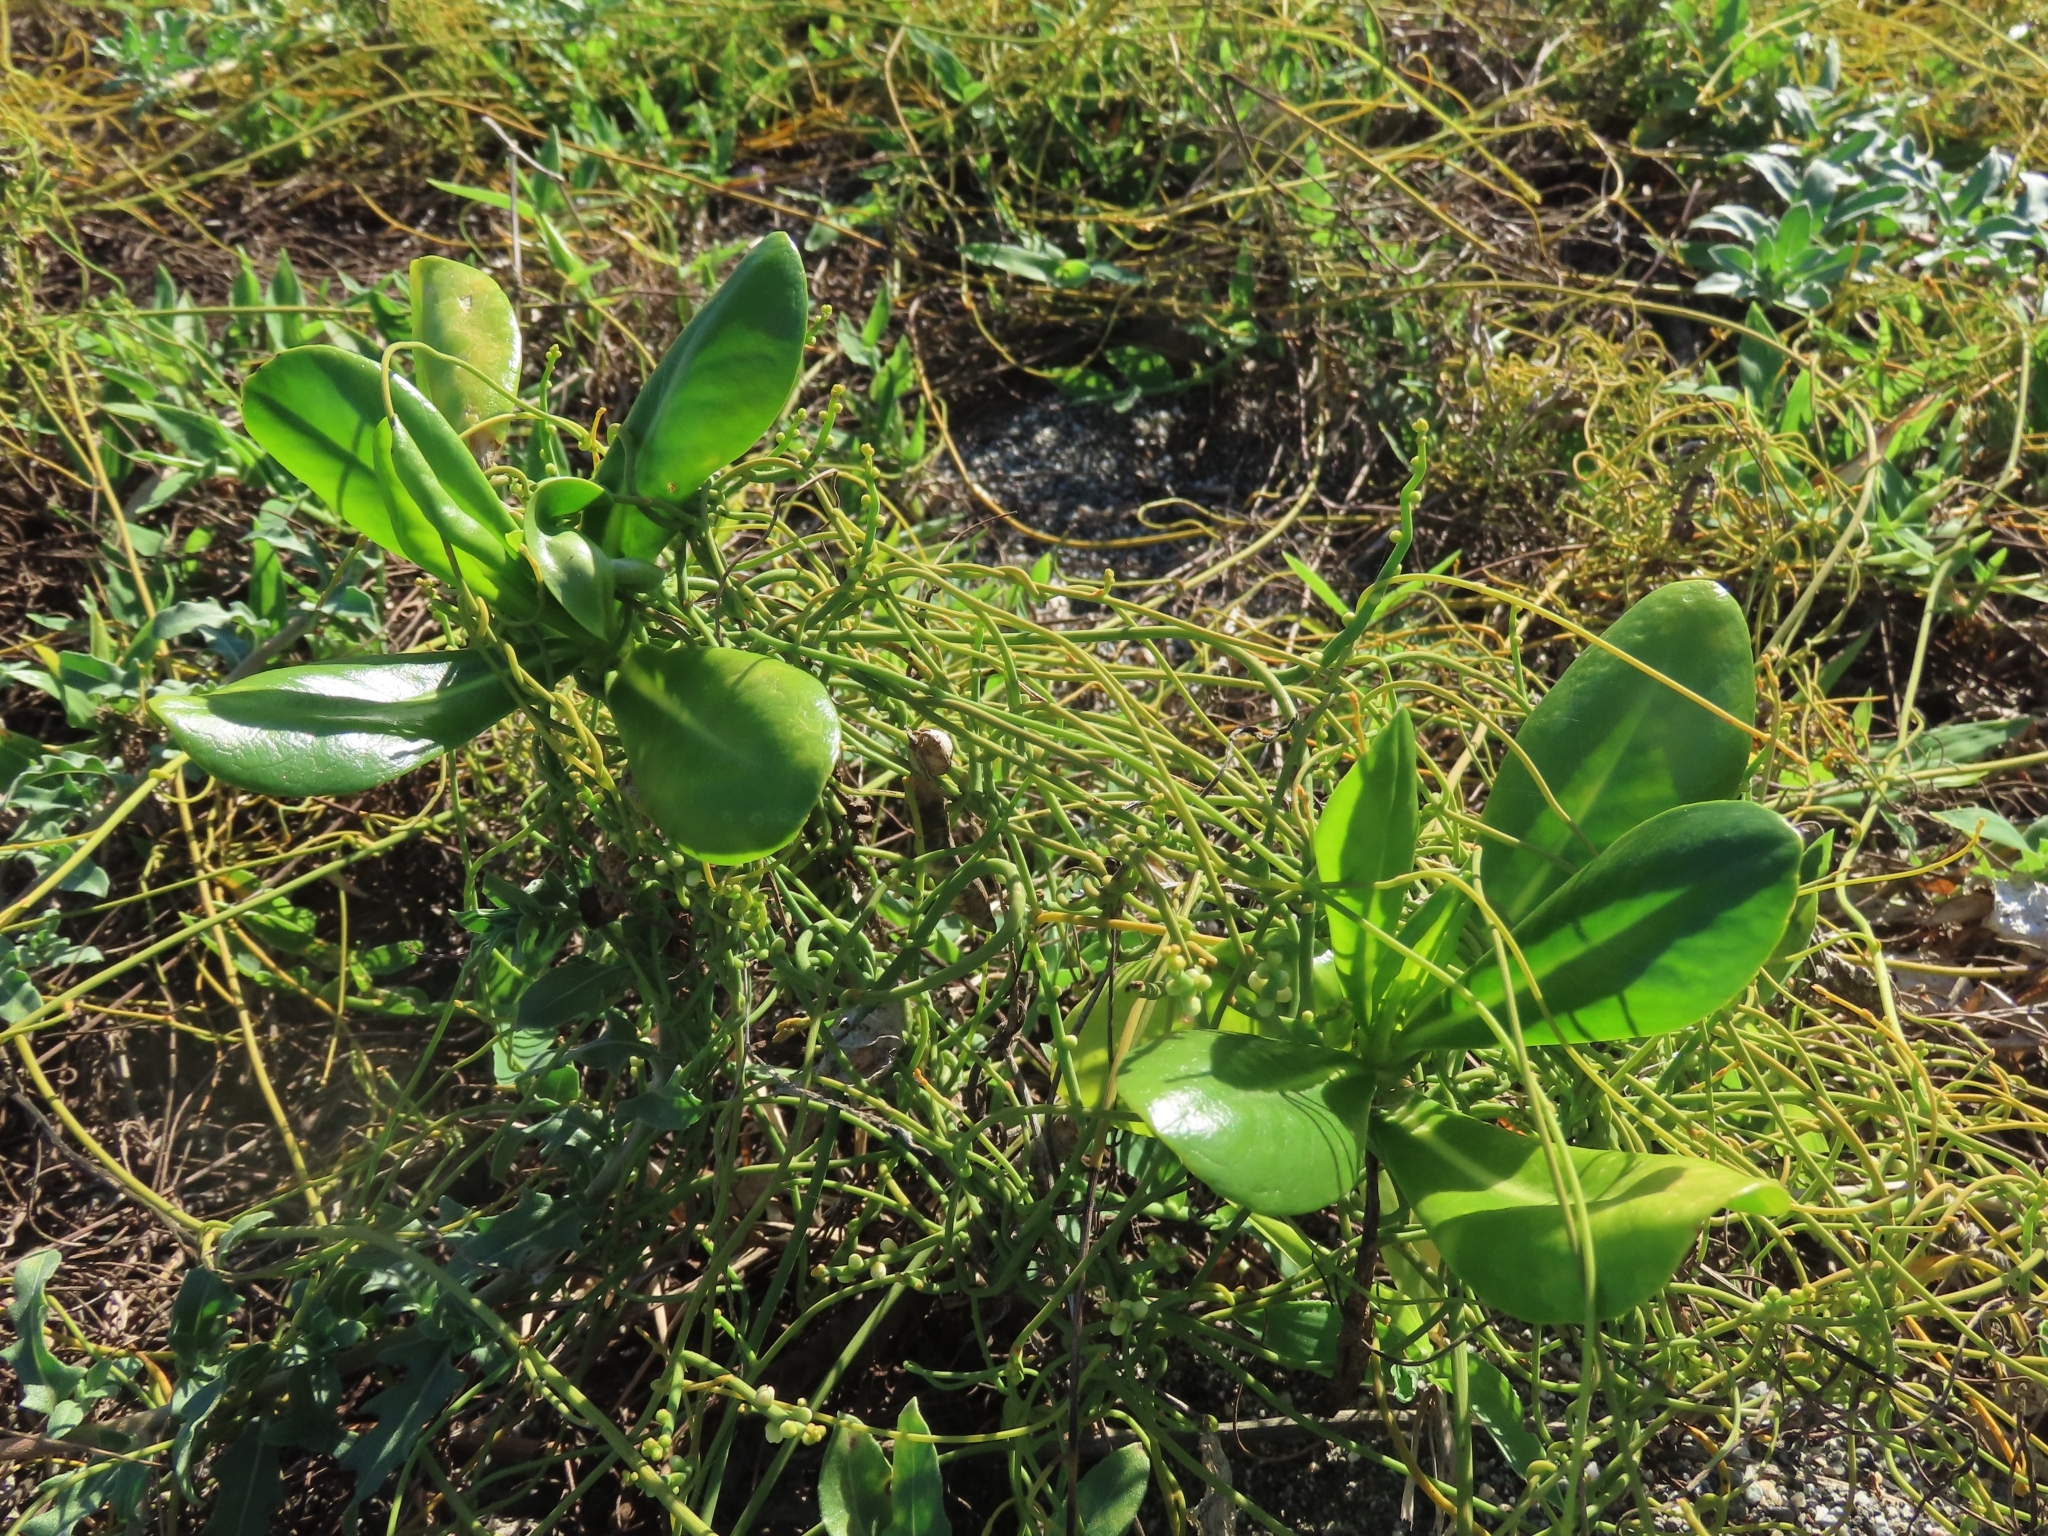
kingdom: Plantae
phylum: Tracheophyta
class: Magnoliopsida
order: Asterales
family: Goodeniaceae
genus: Scaevola
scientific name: Scaevola taccada
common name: Sea lettucetree
